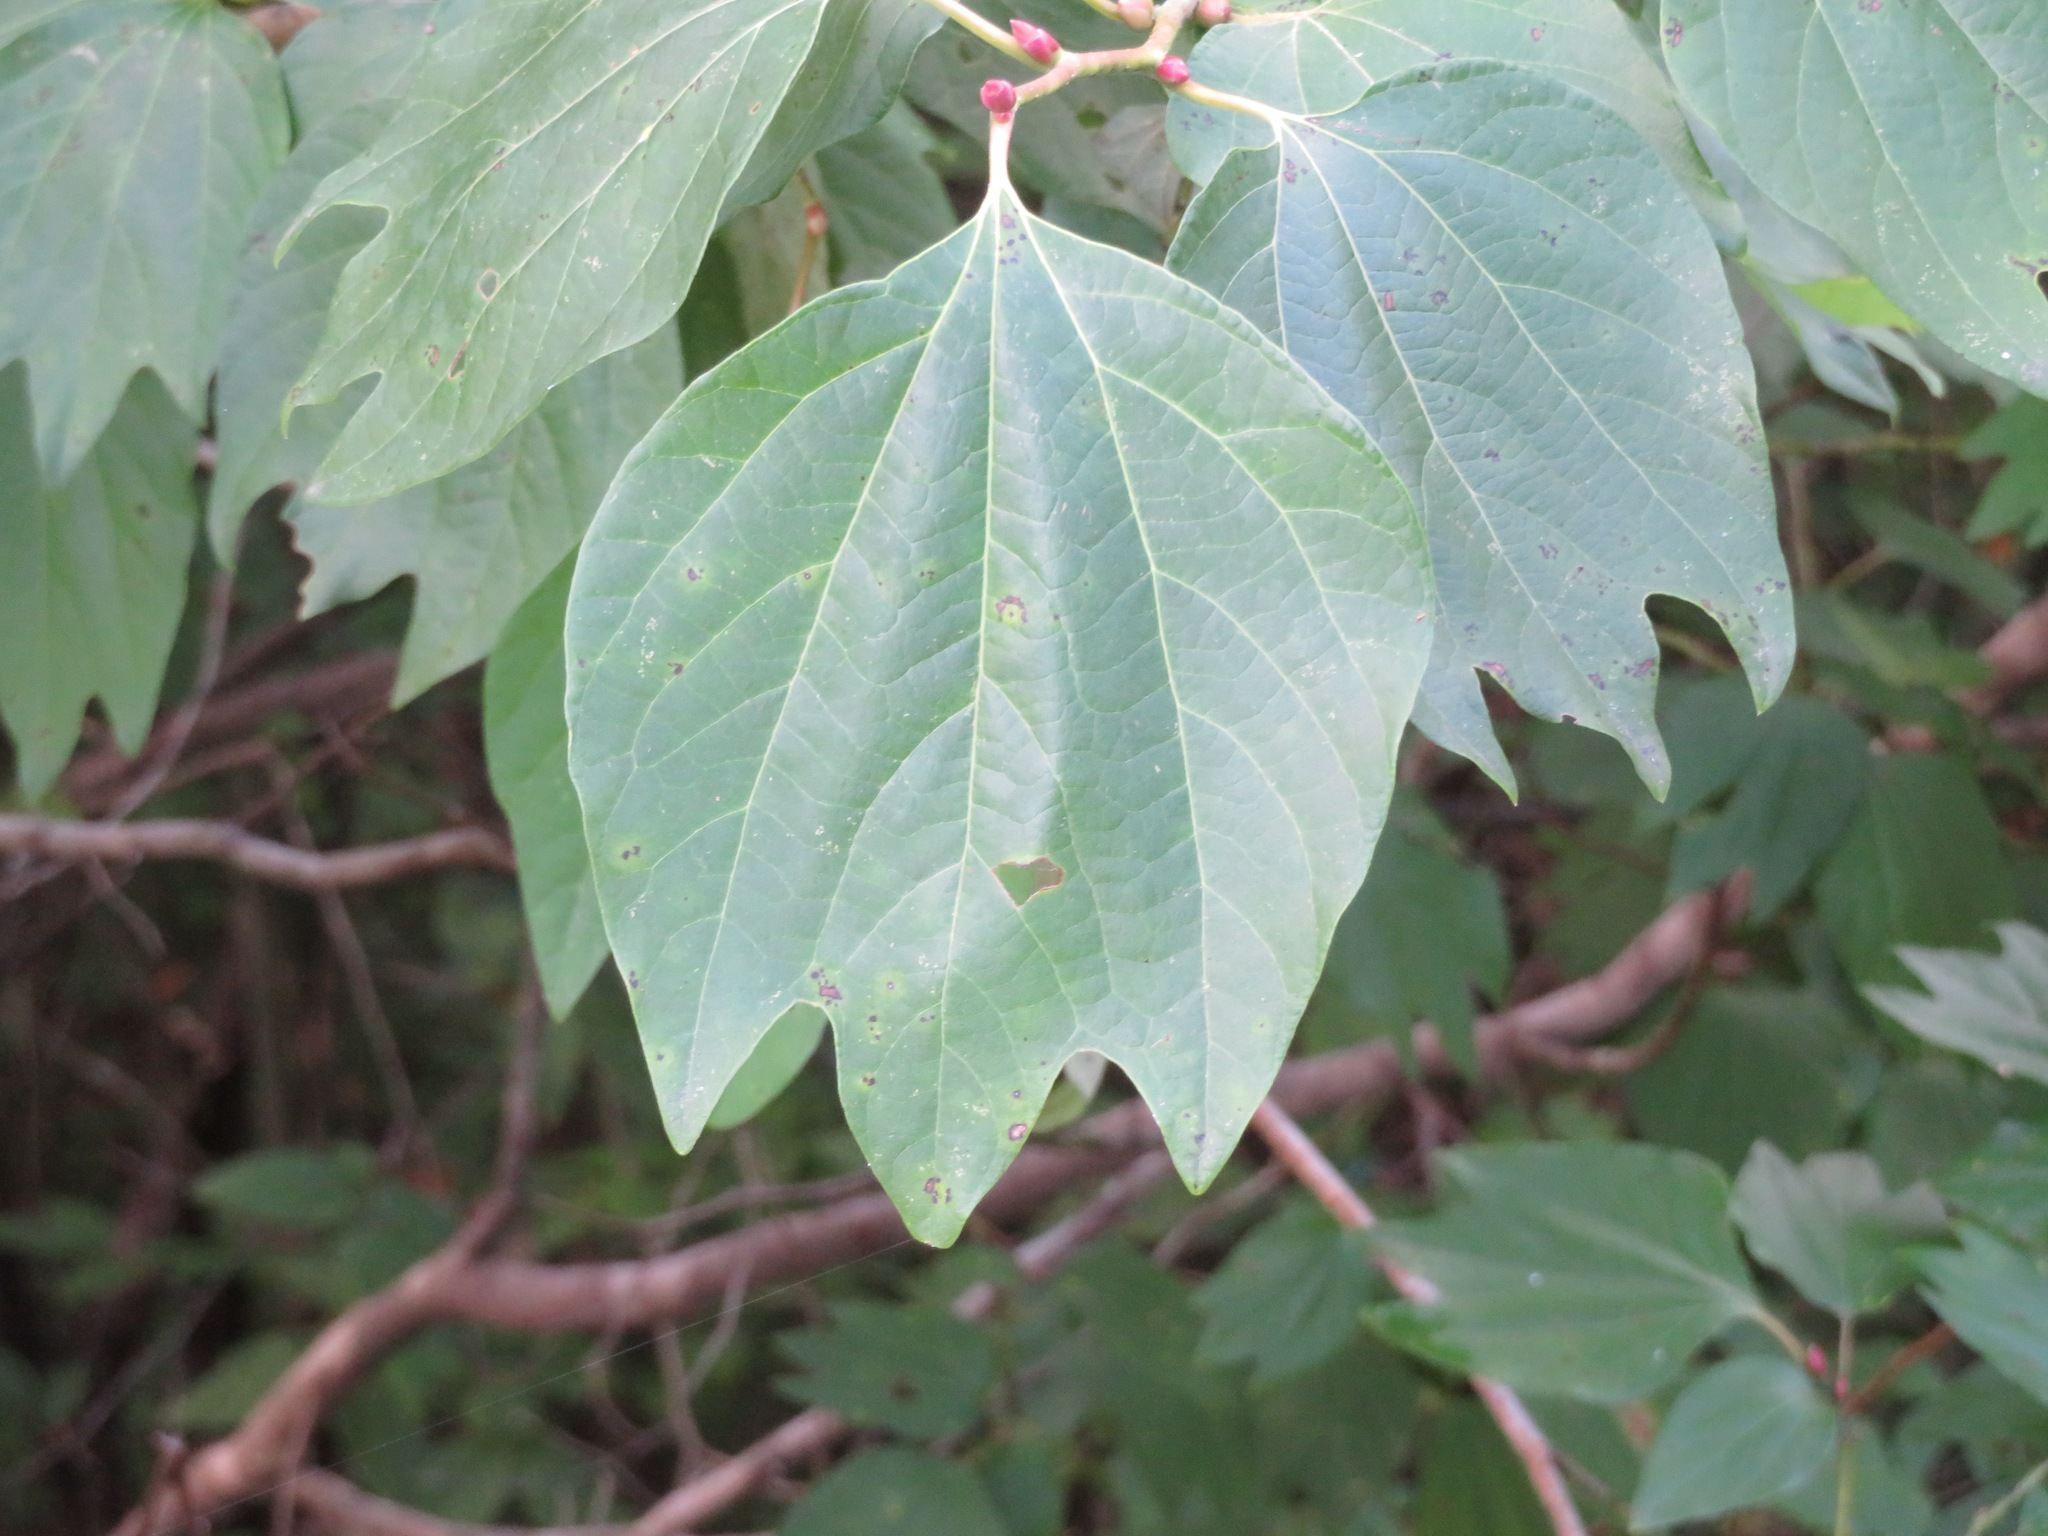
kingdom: Plantae
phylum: Tracheophyta
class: Magnoliopsida
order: Laurales
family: Lauraceae
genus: Lindera
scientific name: Lindera obtusiloba
